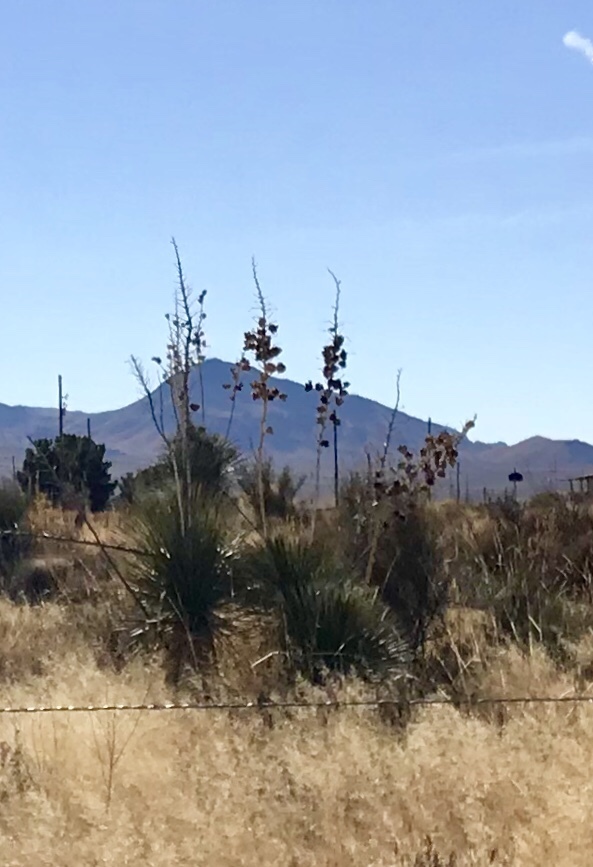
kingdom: Plantae
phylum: Tracheophyta
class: Liliopsida
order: Asparagales
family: Asparagaceae
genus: Yucca
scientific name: Yucca elata
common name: Palmella
